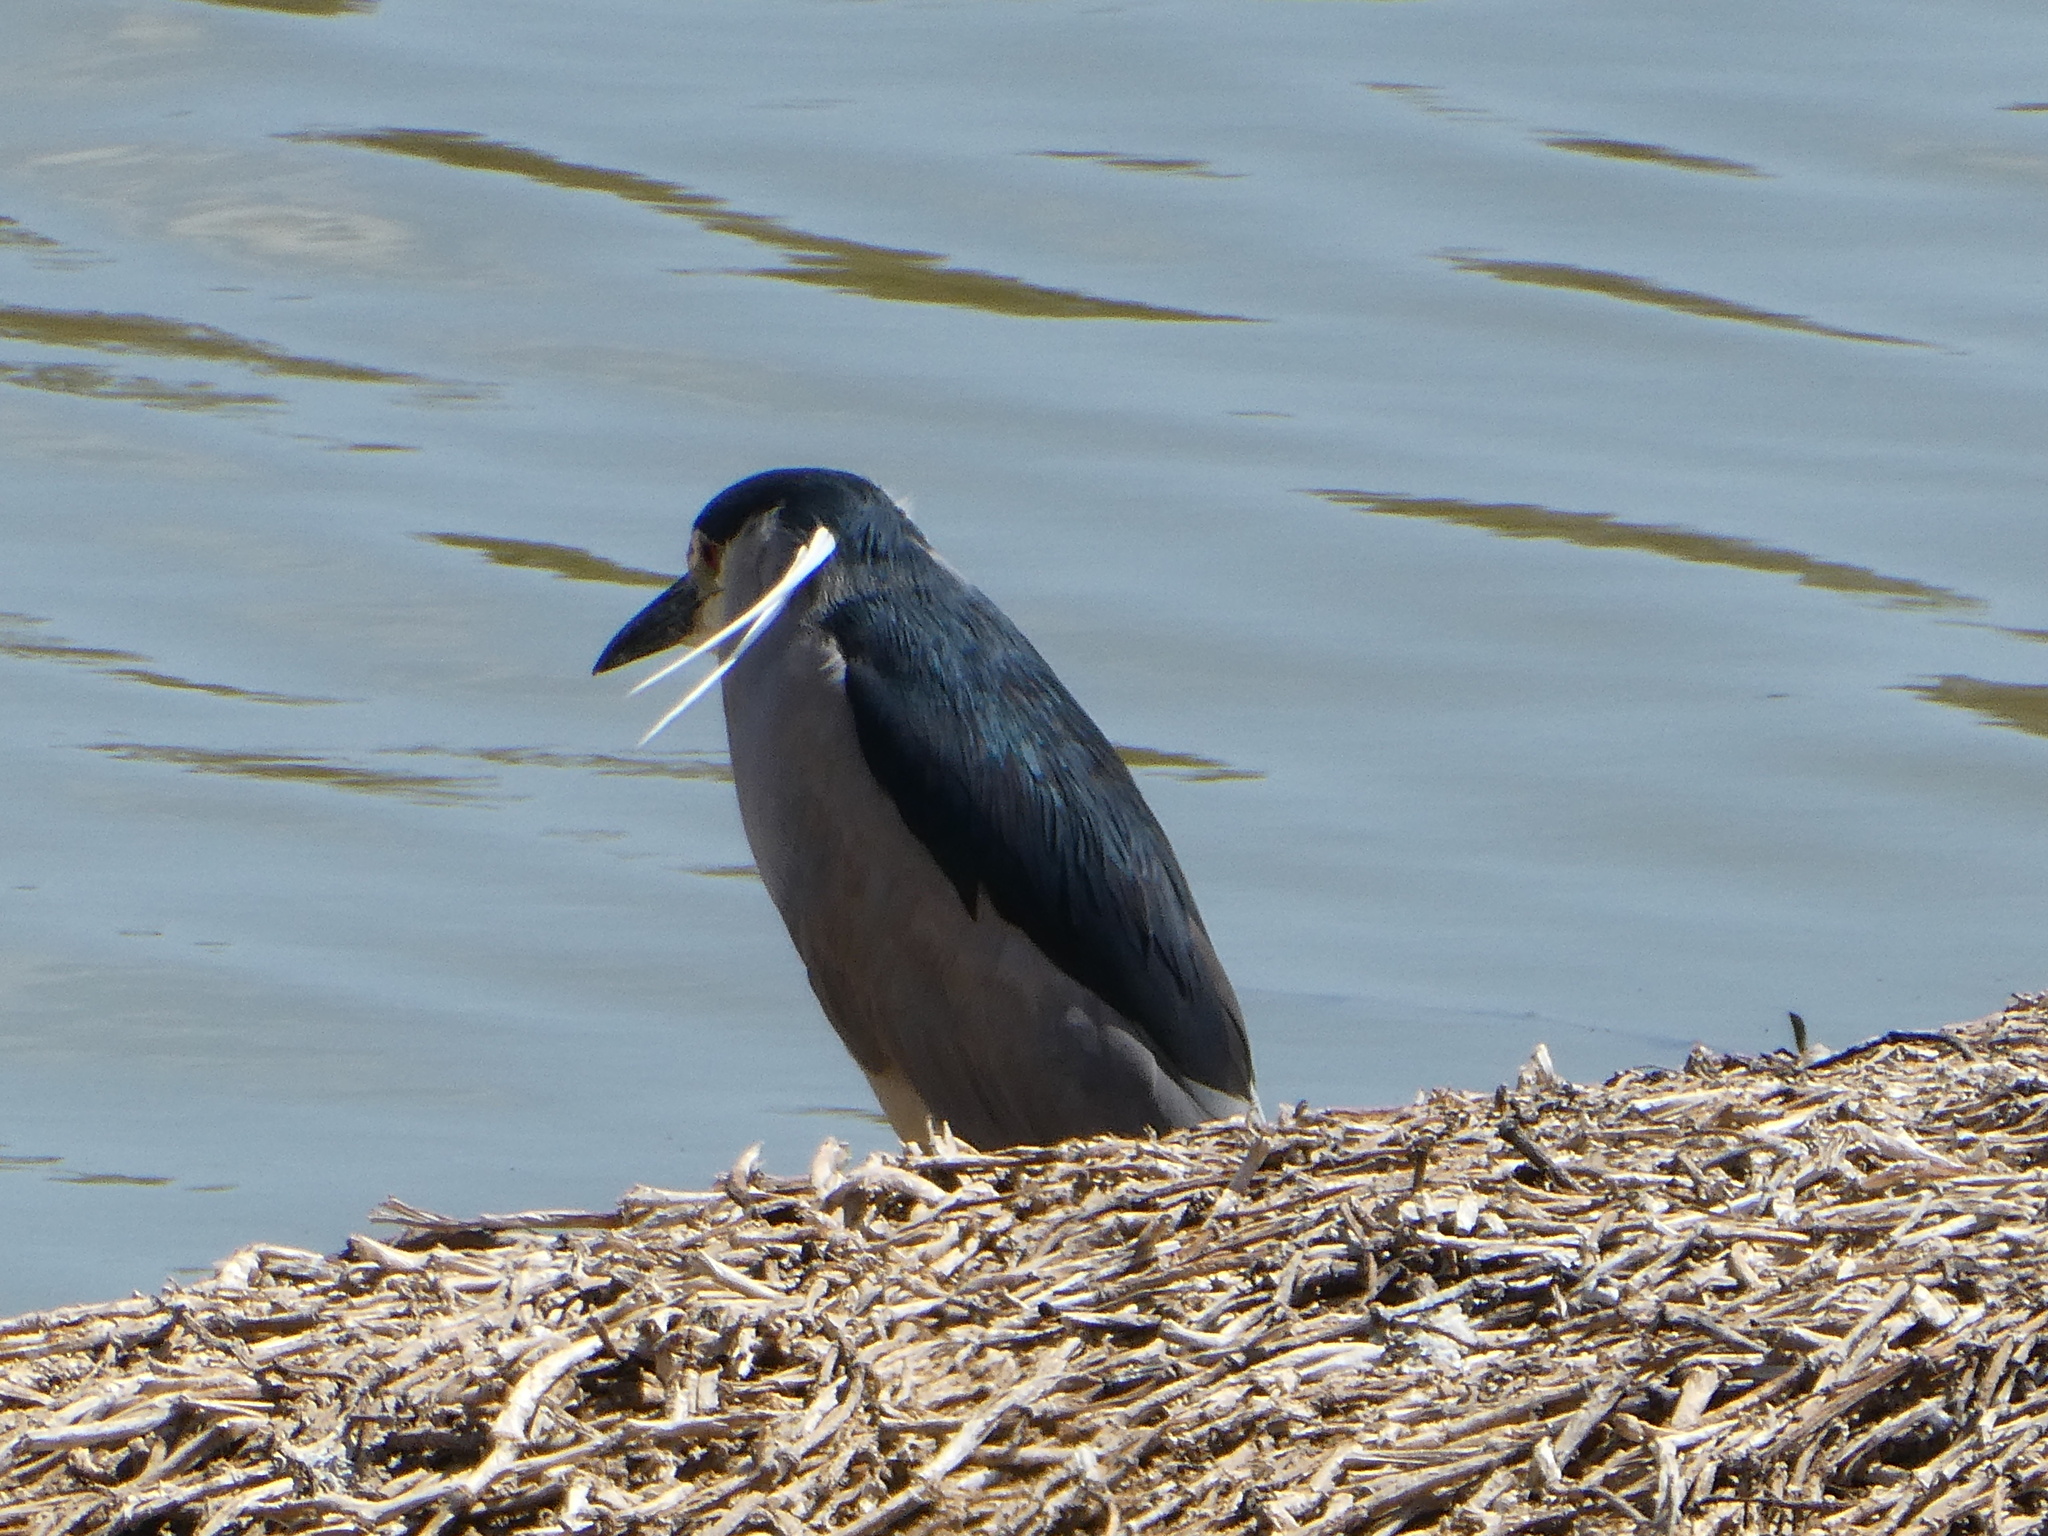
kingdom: Animalia
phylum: Chordata
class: Aves
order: Pelecaniformes
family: Ardeidae
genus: Nycticorax
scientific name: Nycticorax nycticorax
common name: Black-crowned night heron
